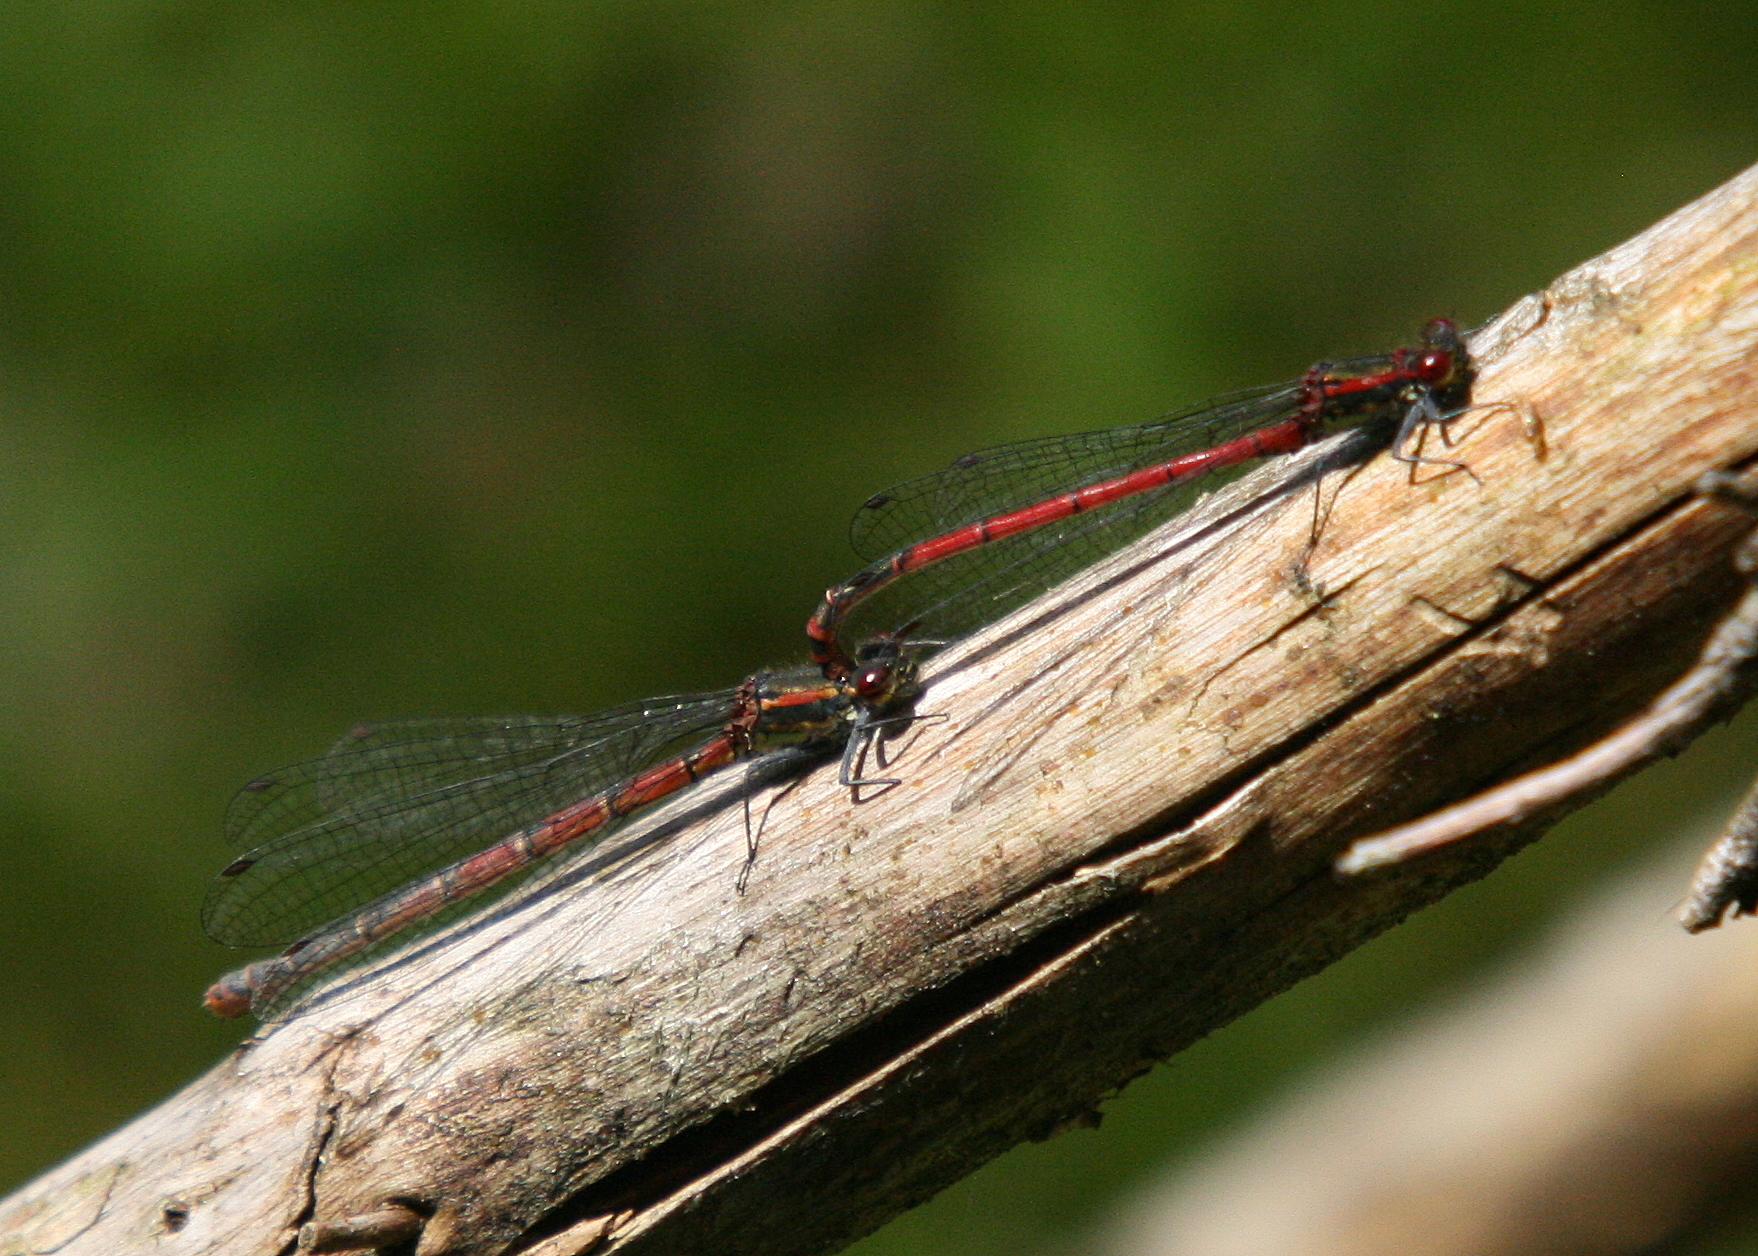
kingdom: Animalia
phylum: Arthropoda
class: Insecta
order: Odonata
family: Coenagrionidae
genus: Pyrrhosoma
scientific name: Pyrrhosoma nymphula
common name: Large red damsel
